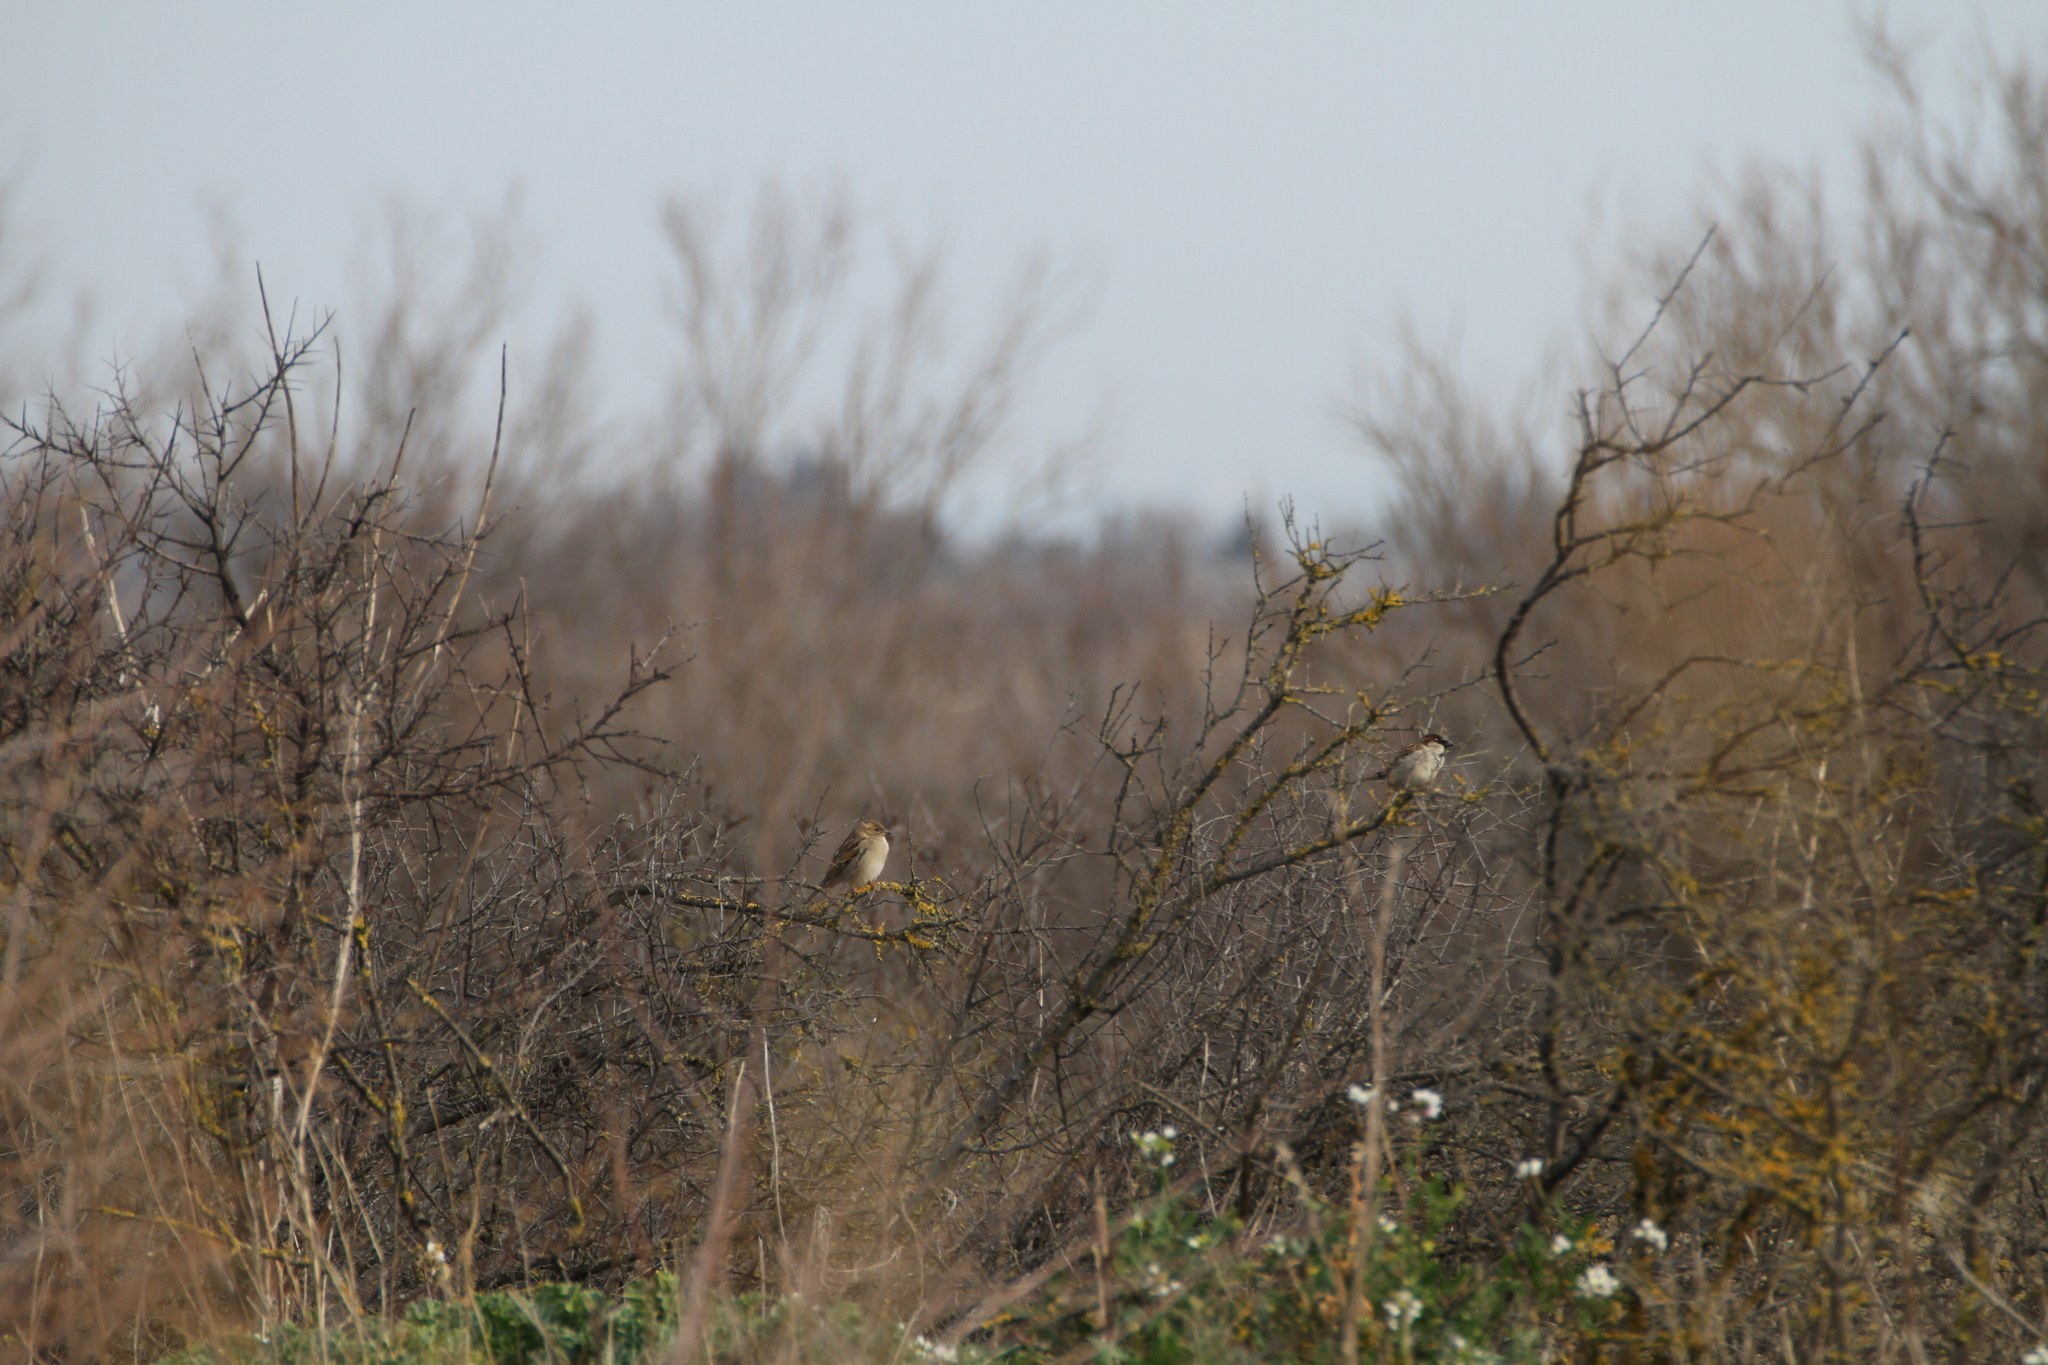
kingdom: Animalia
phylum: Chordata
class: Aves
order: Passeriformes
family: Passeridae
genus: Passer
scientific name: Passer domesticus
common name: House sparrow
